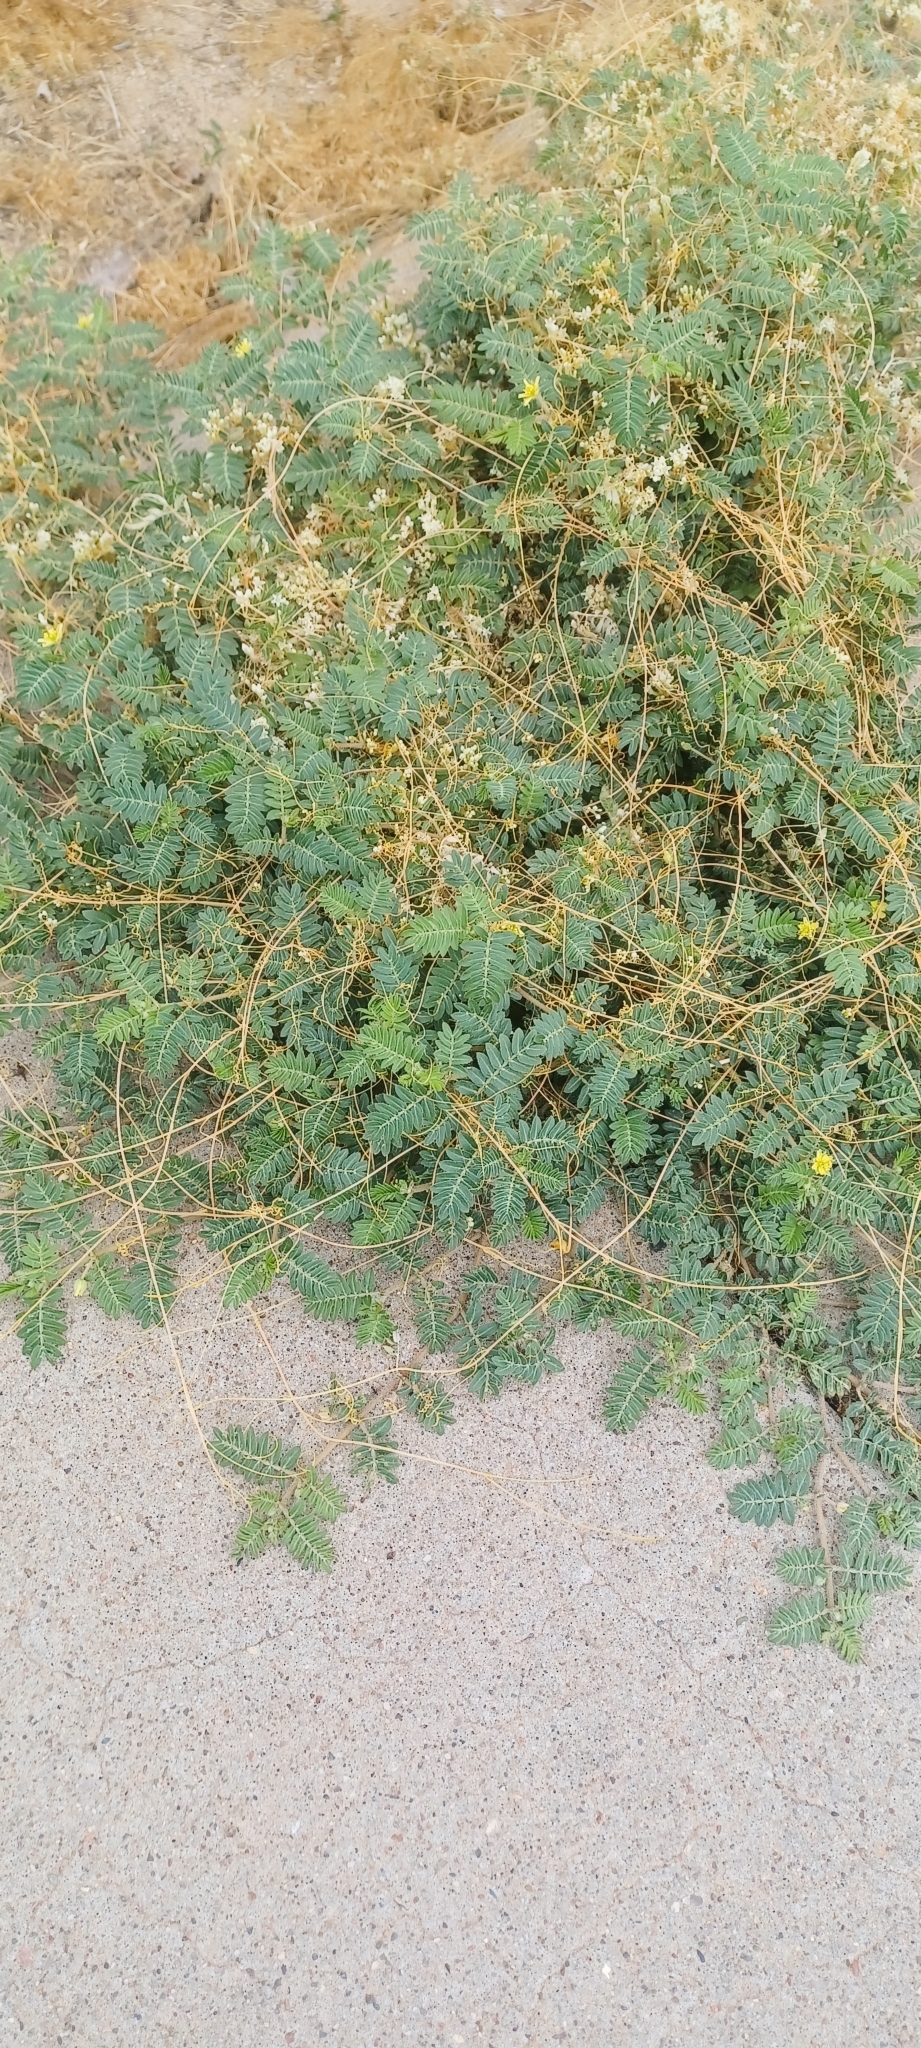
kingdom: Plantae
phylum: Tracheophyta
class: Magnoliopsida
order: Zygophyllales
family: Zygophyllaceae
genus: Tribulus
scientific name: Tribulus terrestris
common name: Puncturevine
